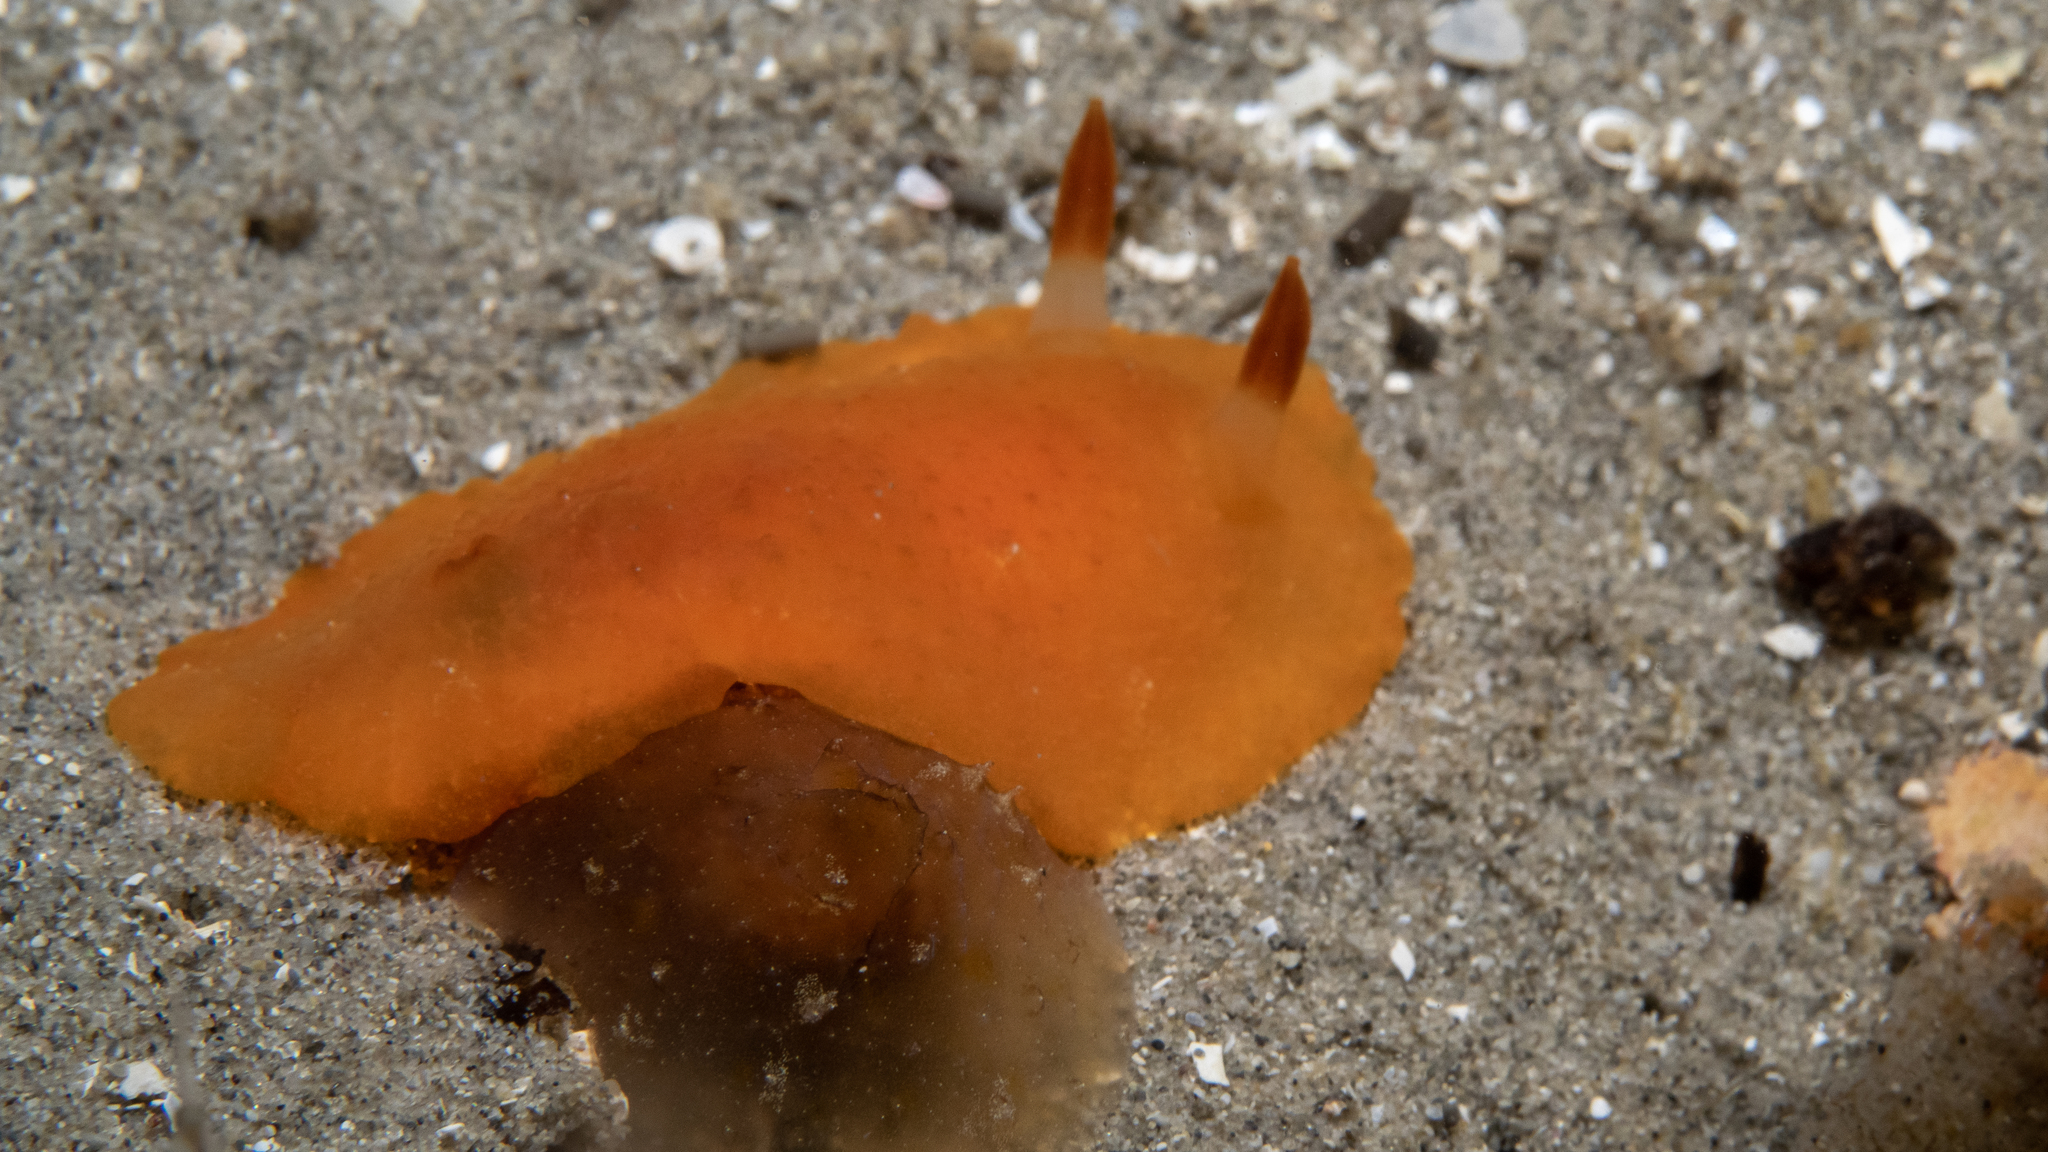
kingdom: Animalia
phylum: Mollusca
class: Gastropoda
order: Nudibranchia
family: Dendrodorididae
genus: Doriopsilla
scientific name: Doriopsilla carneola
